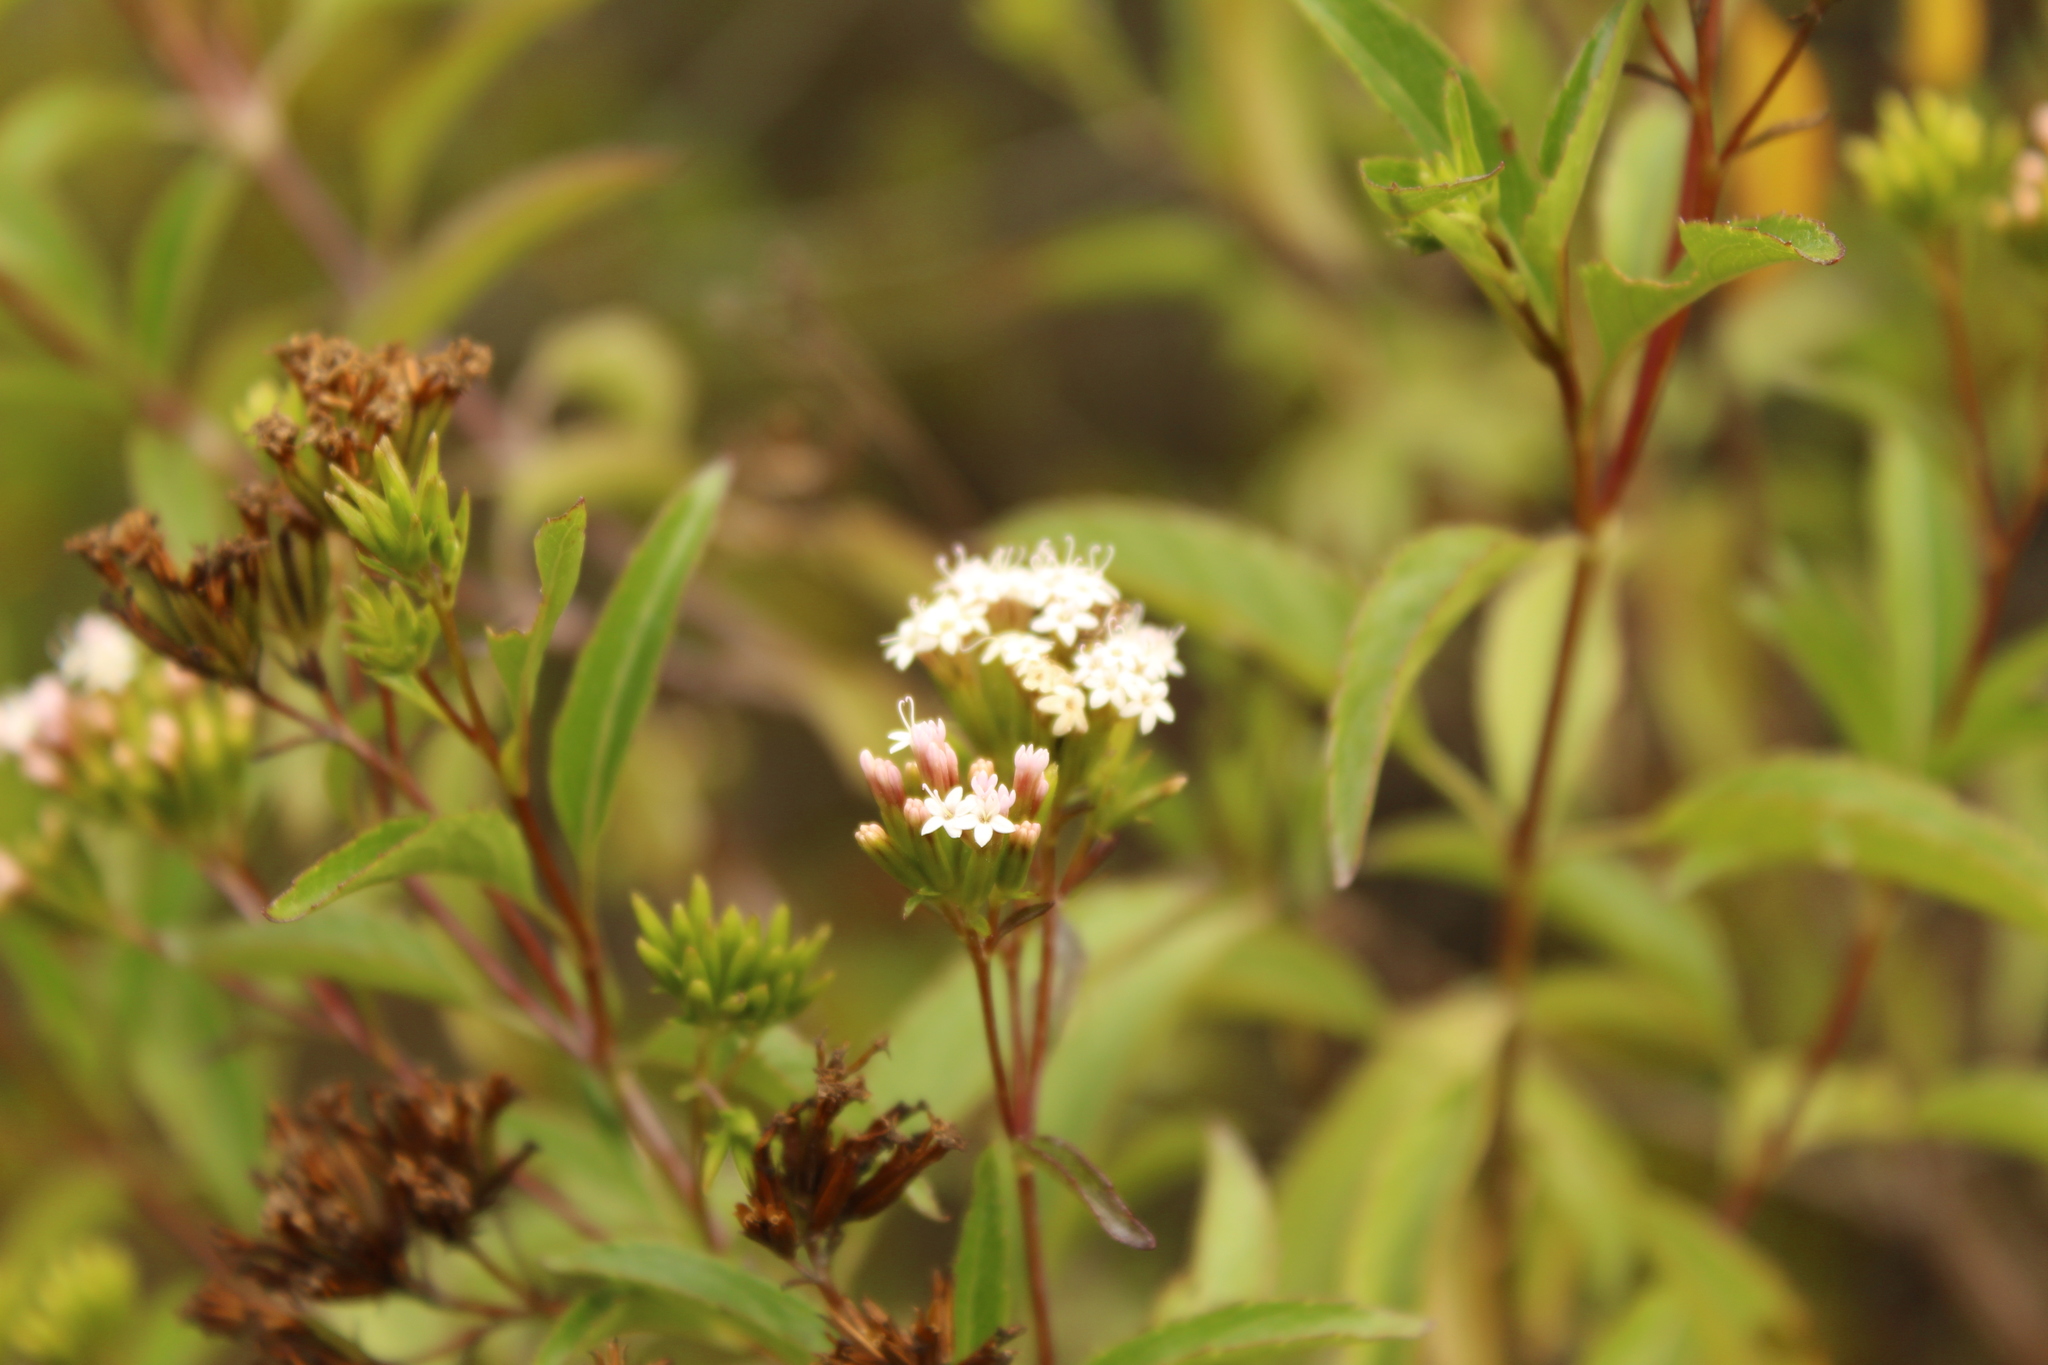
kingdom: Plantae
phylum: Tracheophyta
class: Magnoliopsida
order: Asterales
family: Asteraceae
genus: Stevia
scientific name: Stevia lucida
